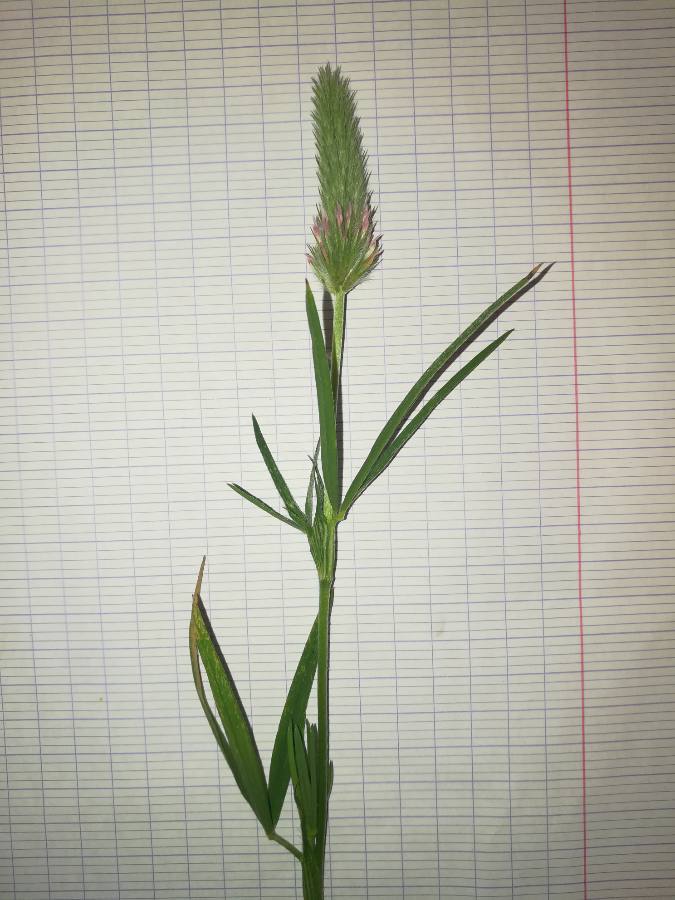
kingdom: Plantae
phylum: Tracheophyta
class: Magnoliopsida
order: Fabales
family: Fabaceae
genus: Trifolium
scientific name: Trifolium angustifolium
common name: Narrow clover
